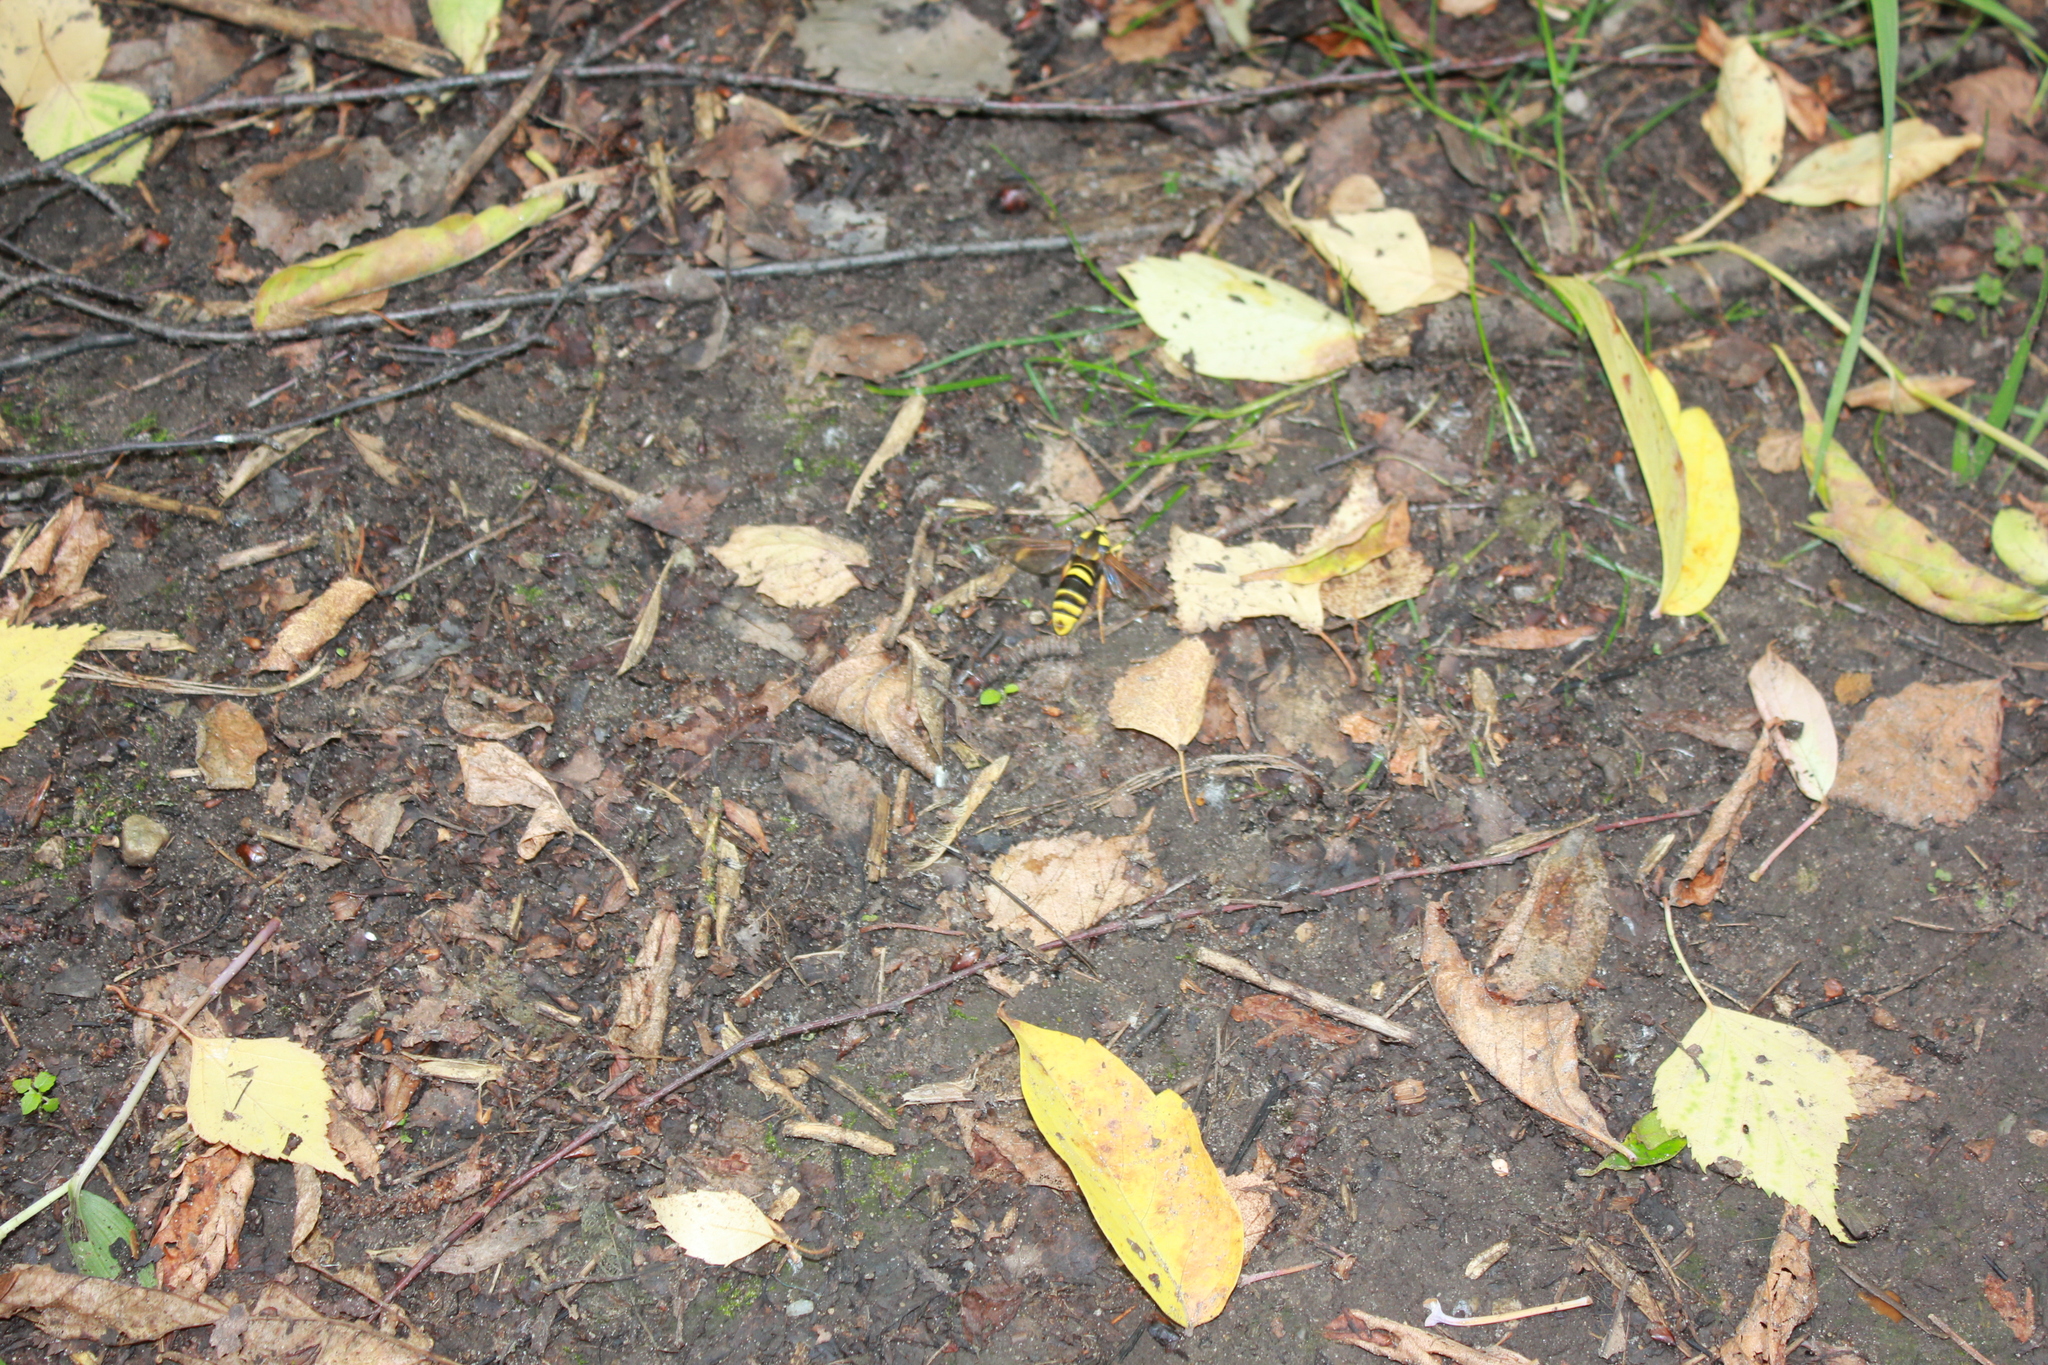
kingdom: Animalia
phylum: Arthropoda
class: Insecta
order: Lepidoptera
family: Sesiidae
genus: Sesia
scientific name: Sesia apiformis
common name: Hornet moth
